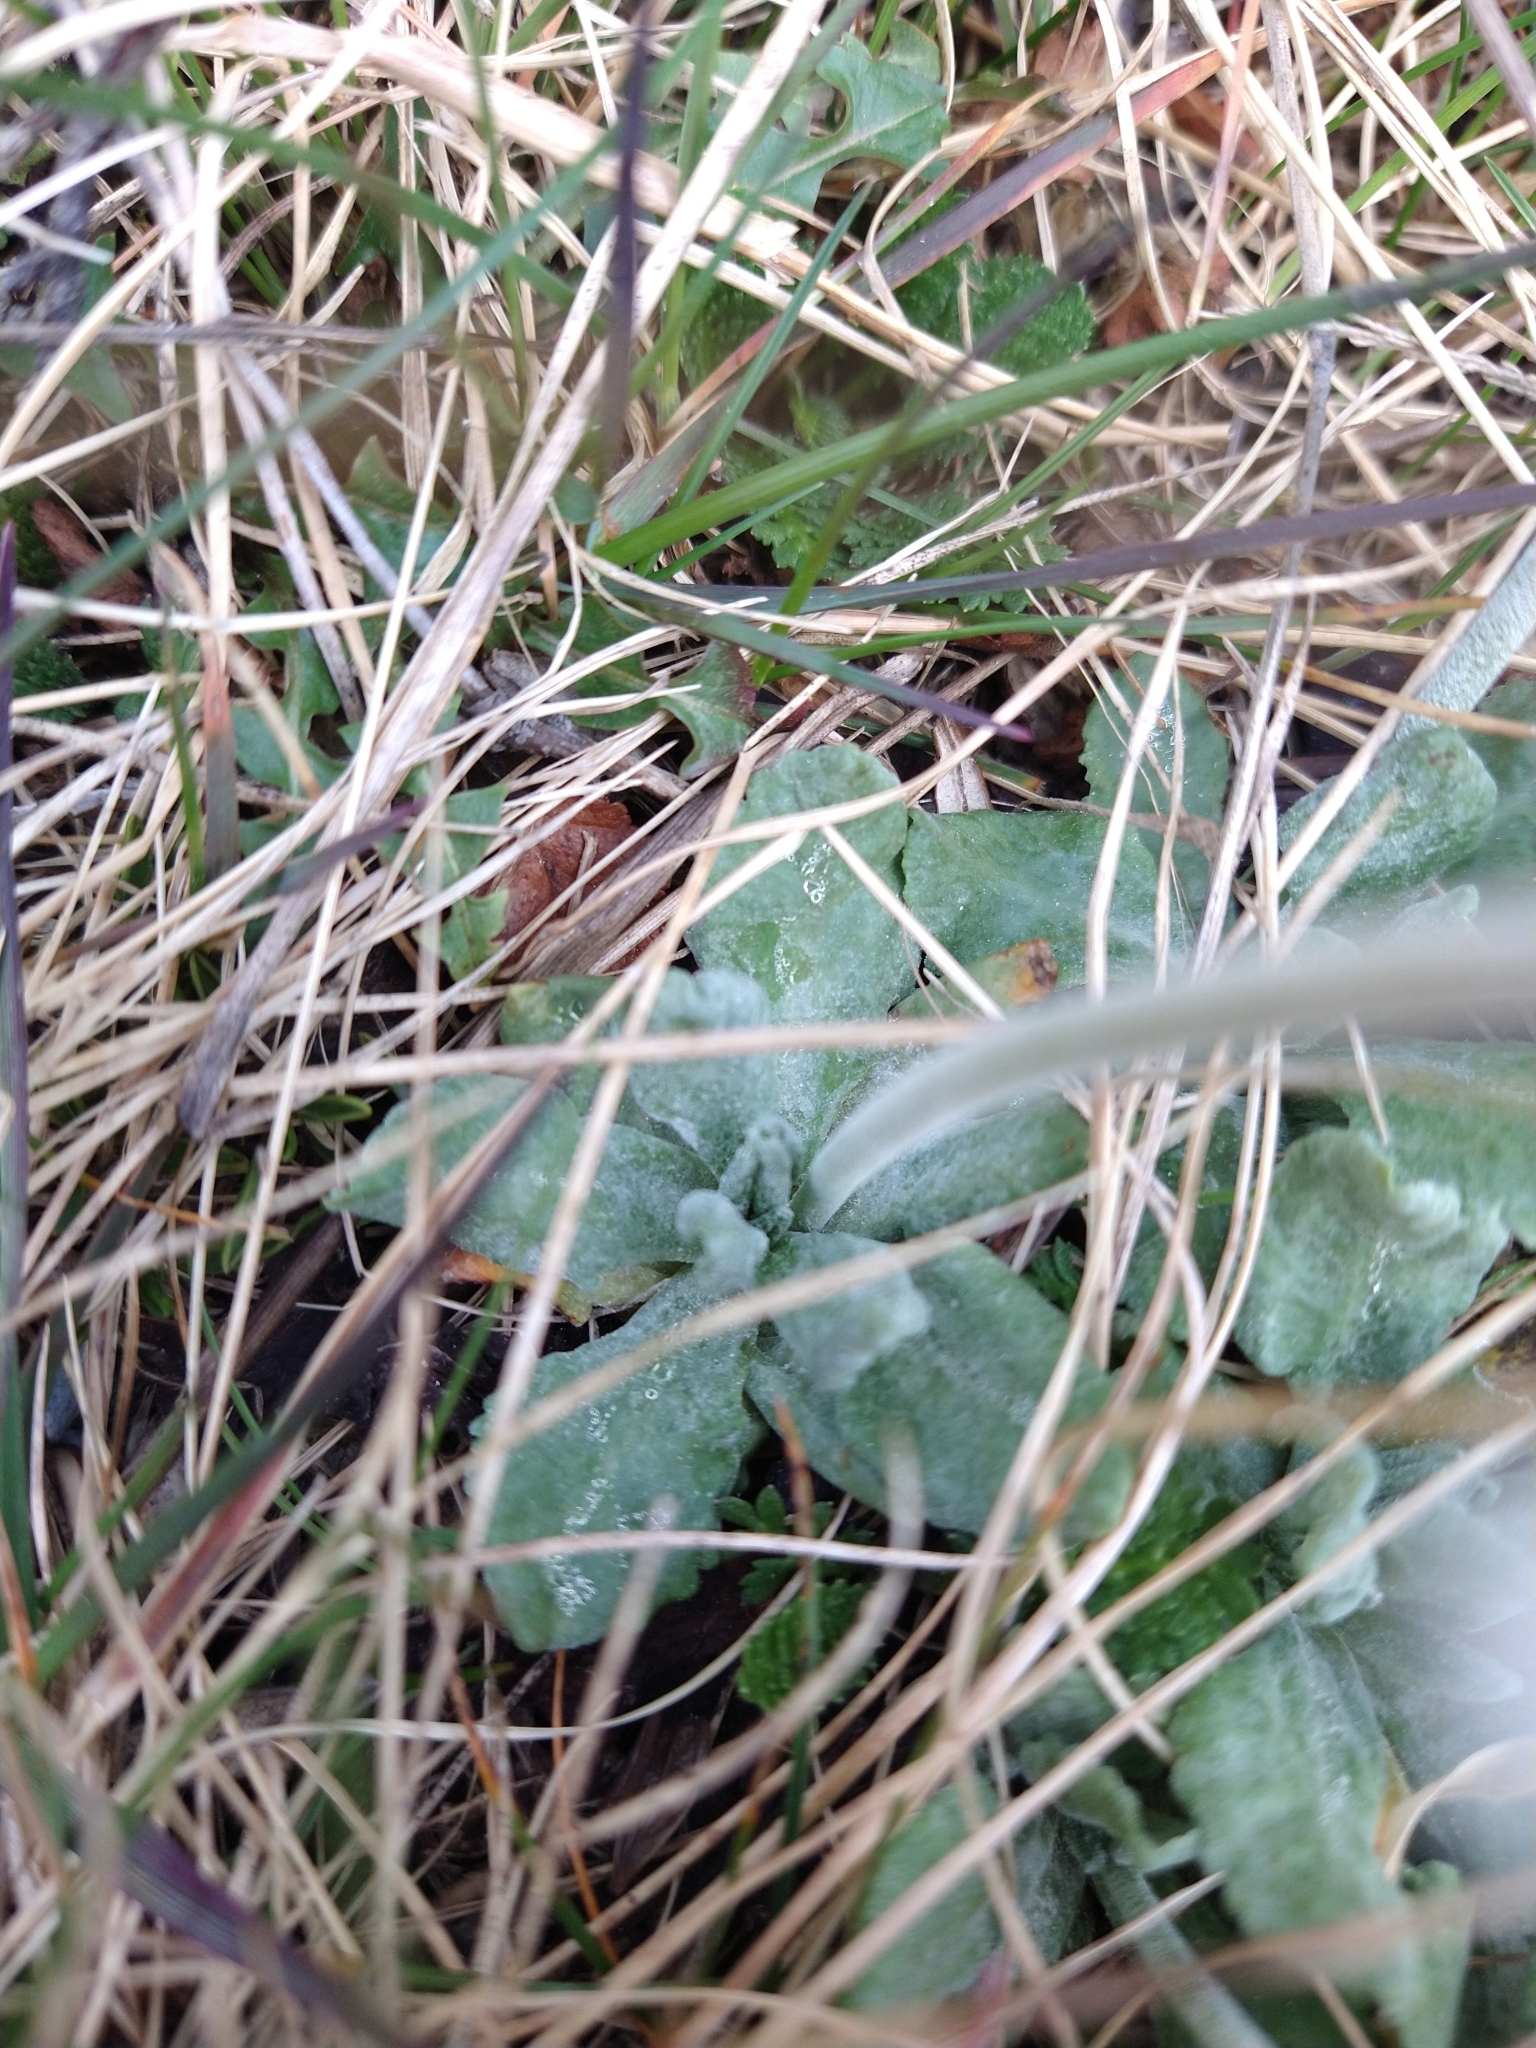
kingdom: Plantae
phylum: Tracheophyta
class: Magnoliopsida
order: Ericales
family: Primulaceae
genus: Primula
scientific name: Primula magellanica
